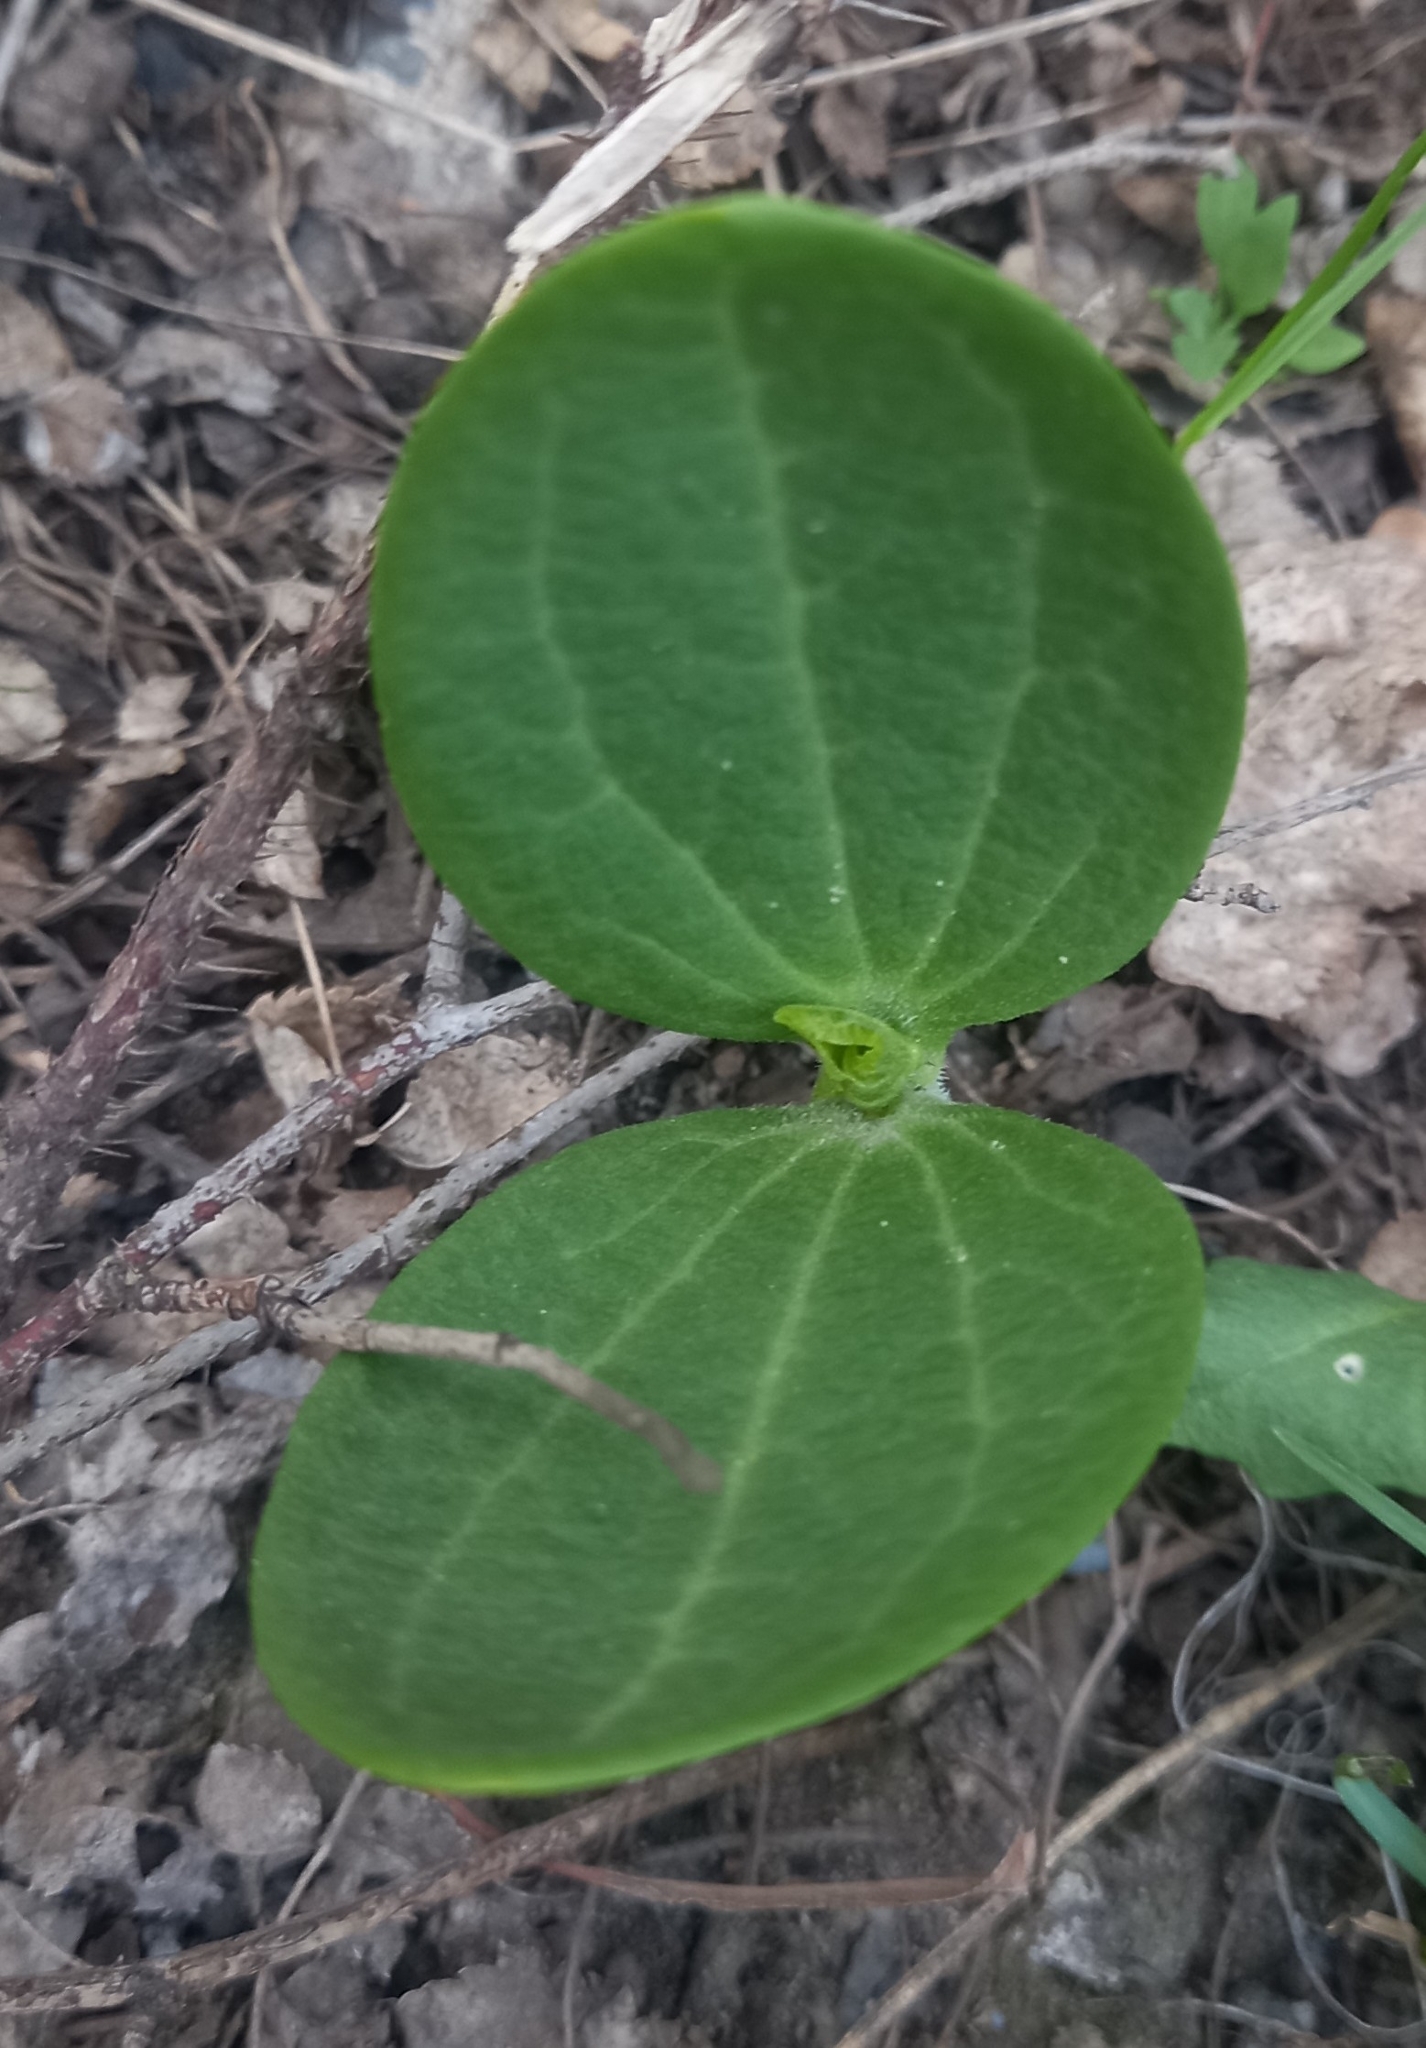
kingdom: Plantae
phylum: Tracheophyta
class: Magnoliopsida
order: Cucurbitales
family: Cucurbitaceae
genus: Echinocystis
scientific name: Echinocystis lobata
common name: Wild cucumber
